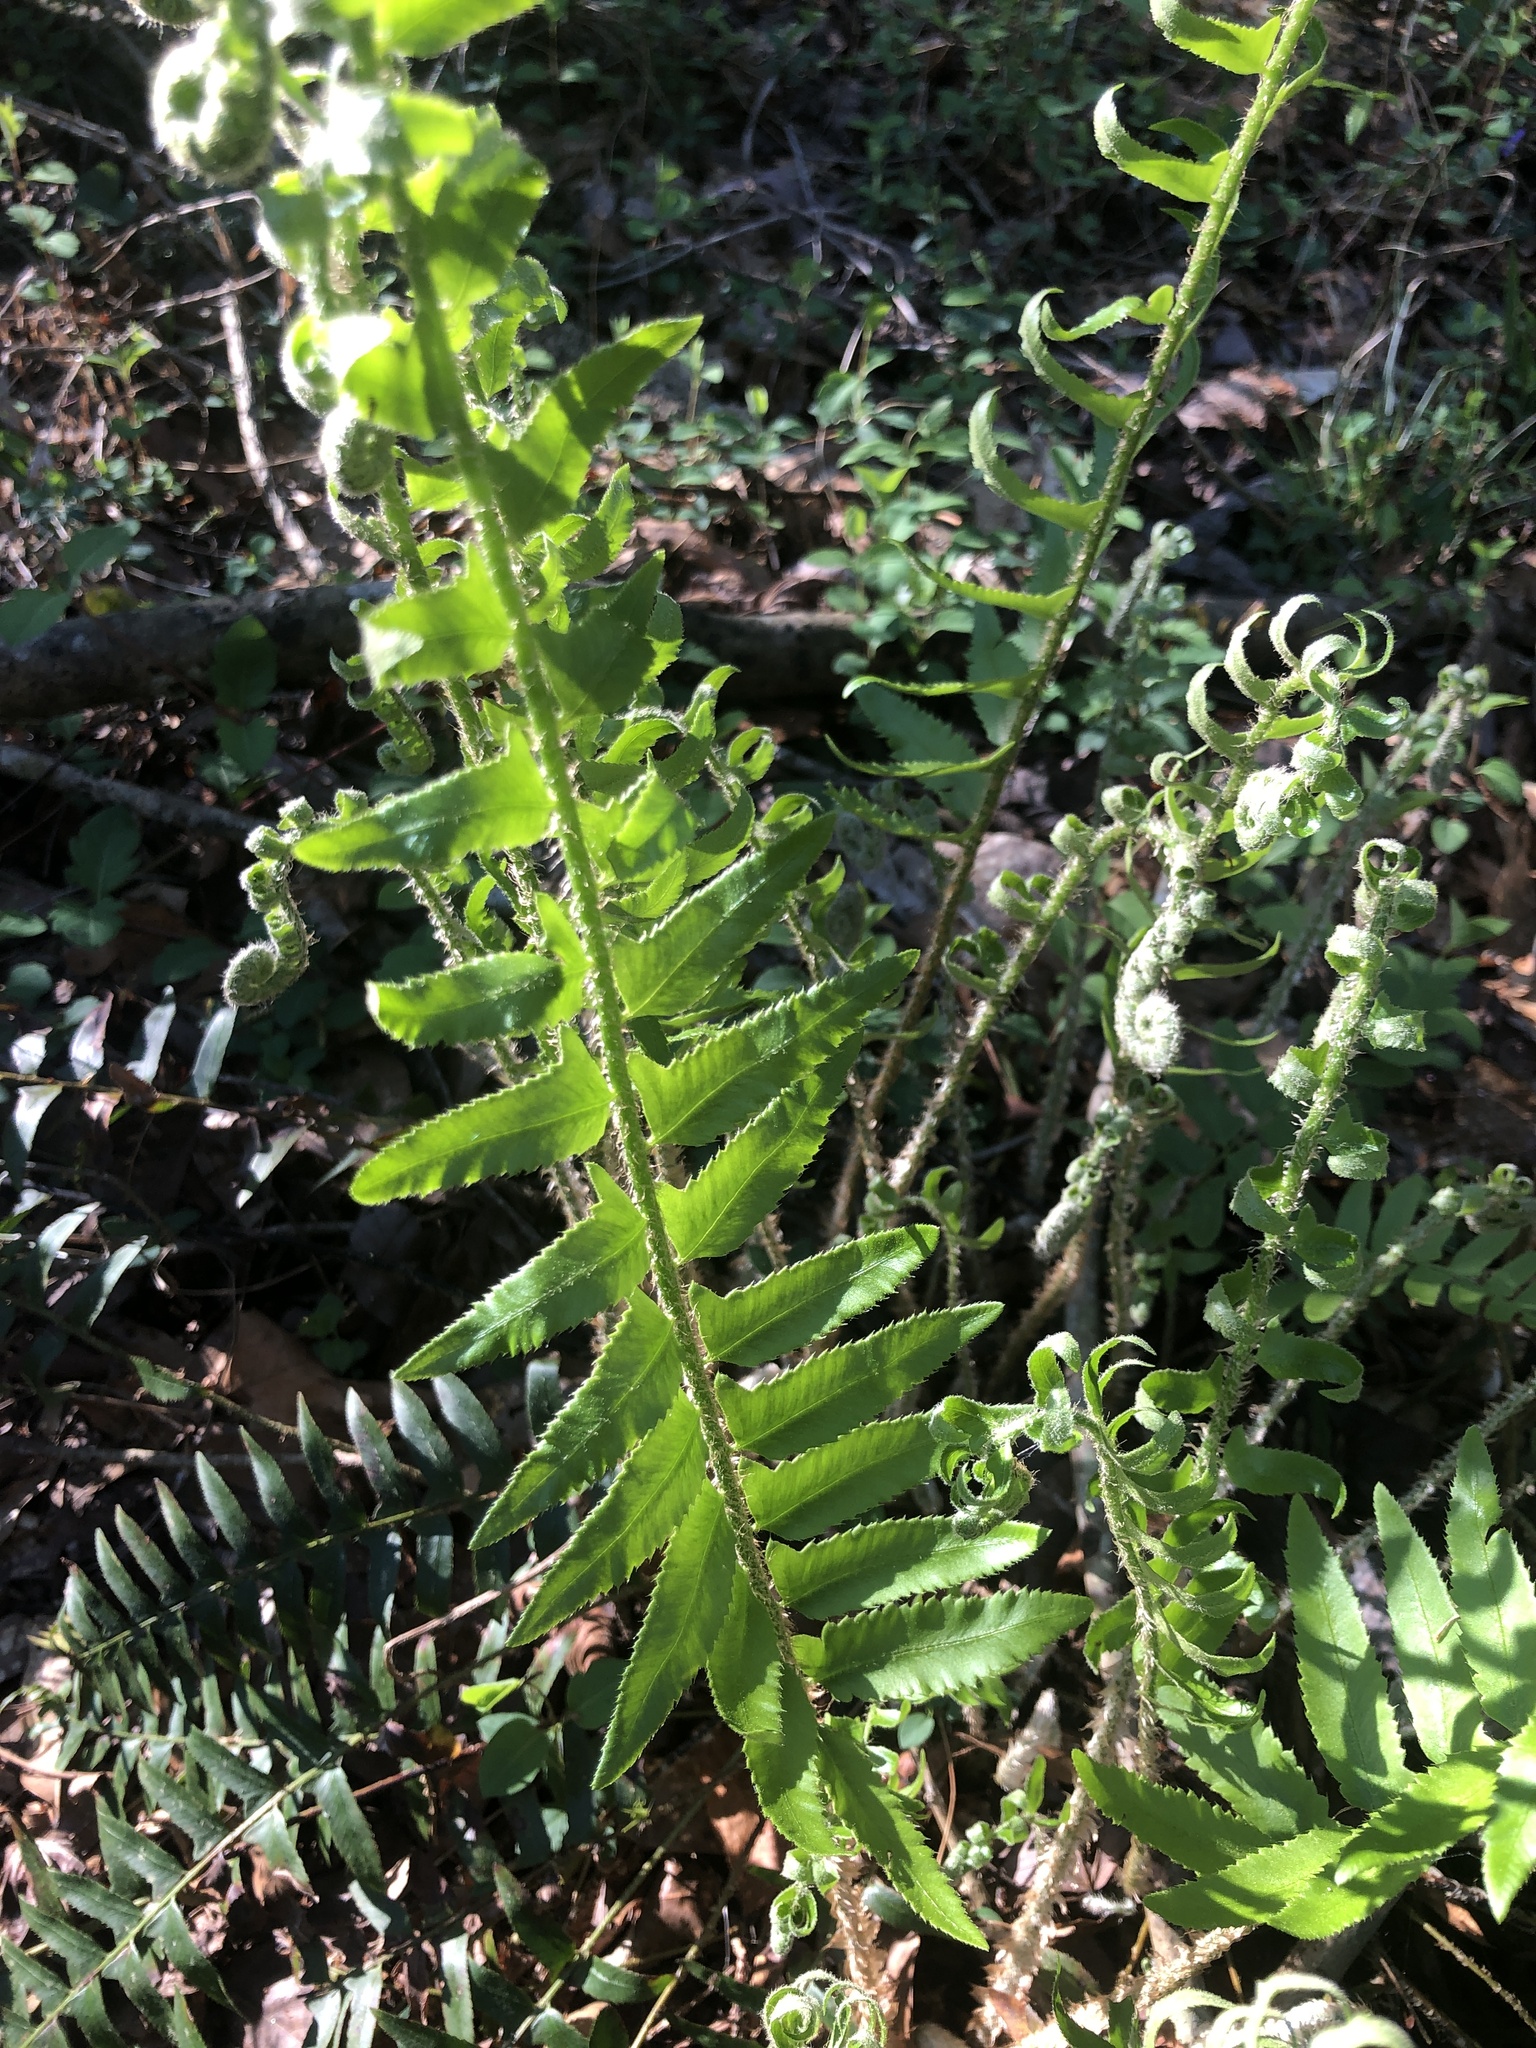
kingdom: Plantae
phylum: Tracheophyta
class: Polypodiopsida
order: Polypodiales
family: Dryopteridaceae
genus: Polystichum
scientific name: Polystichum acrostichoides
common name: Christmas fern
